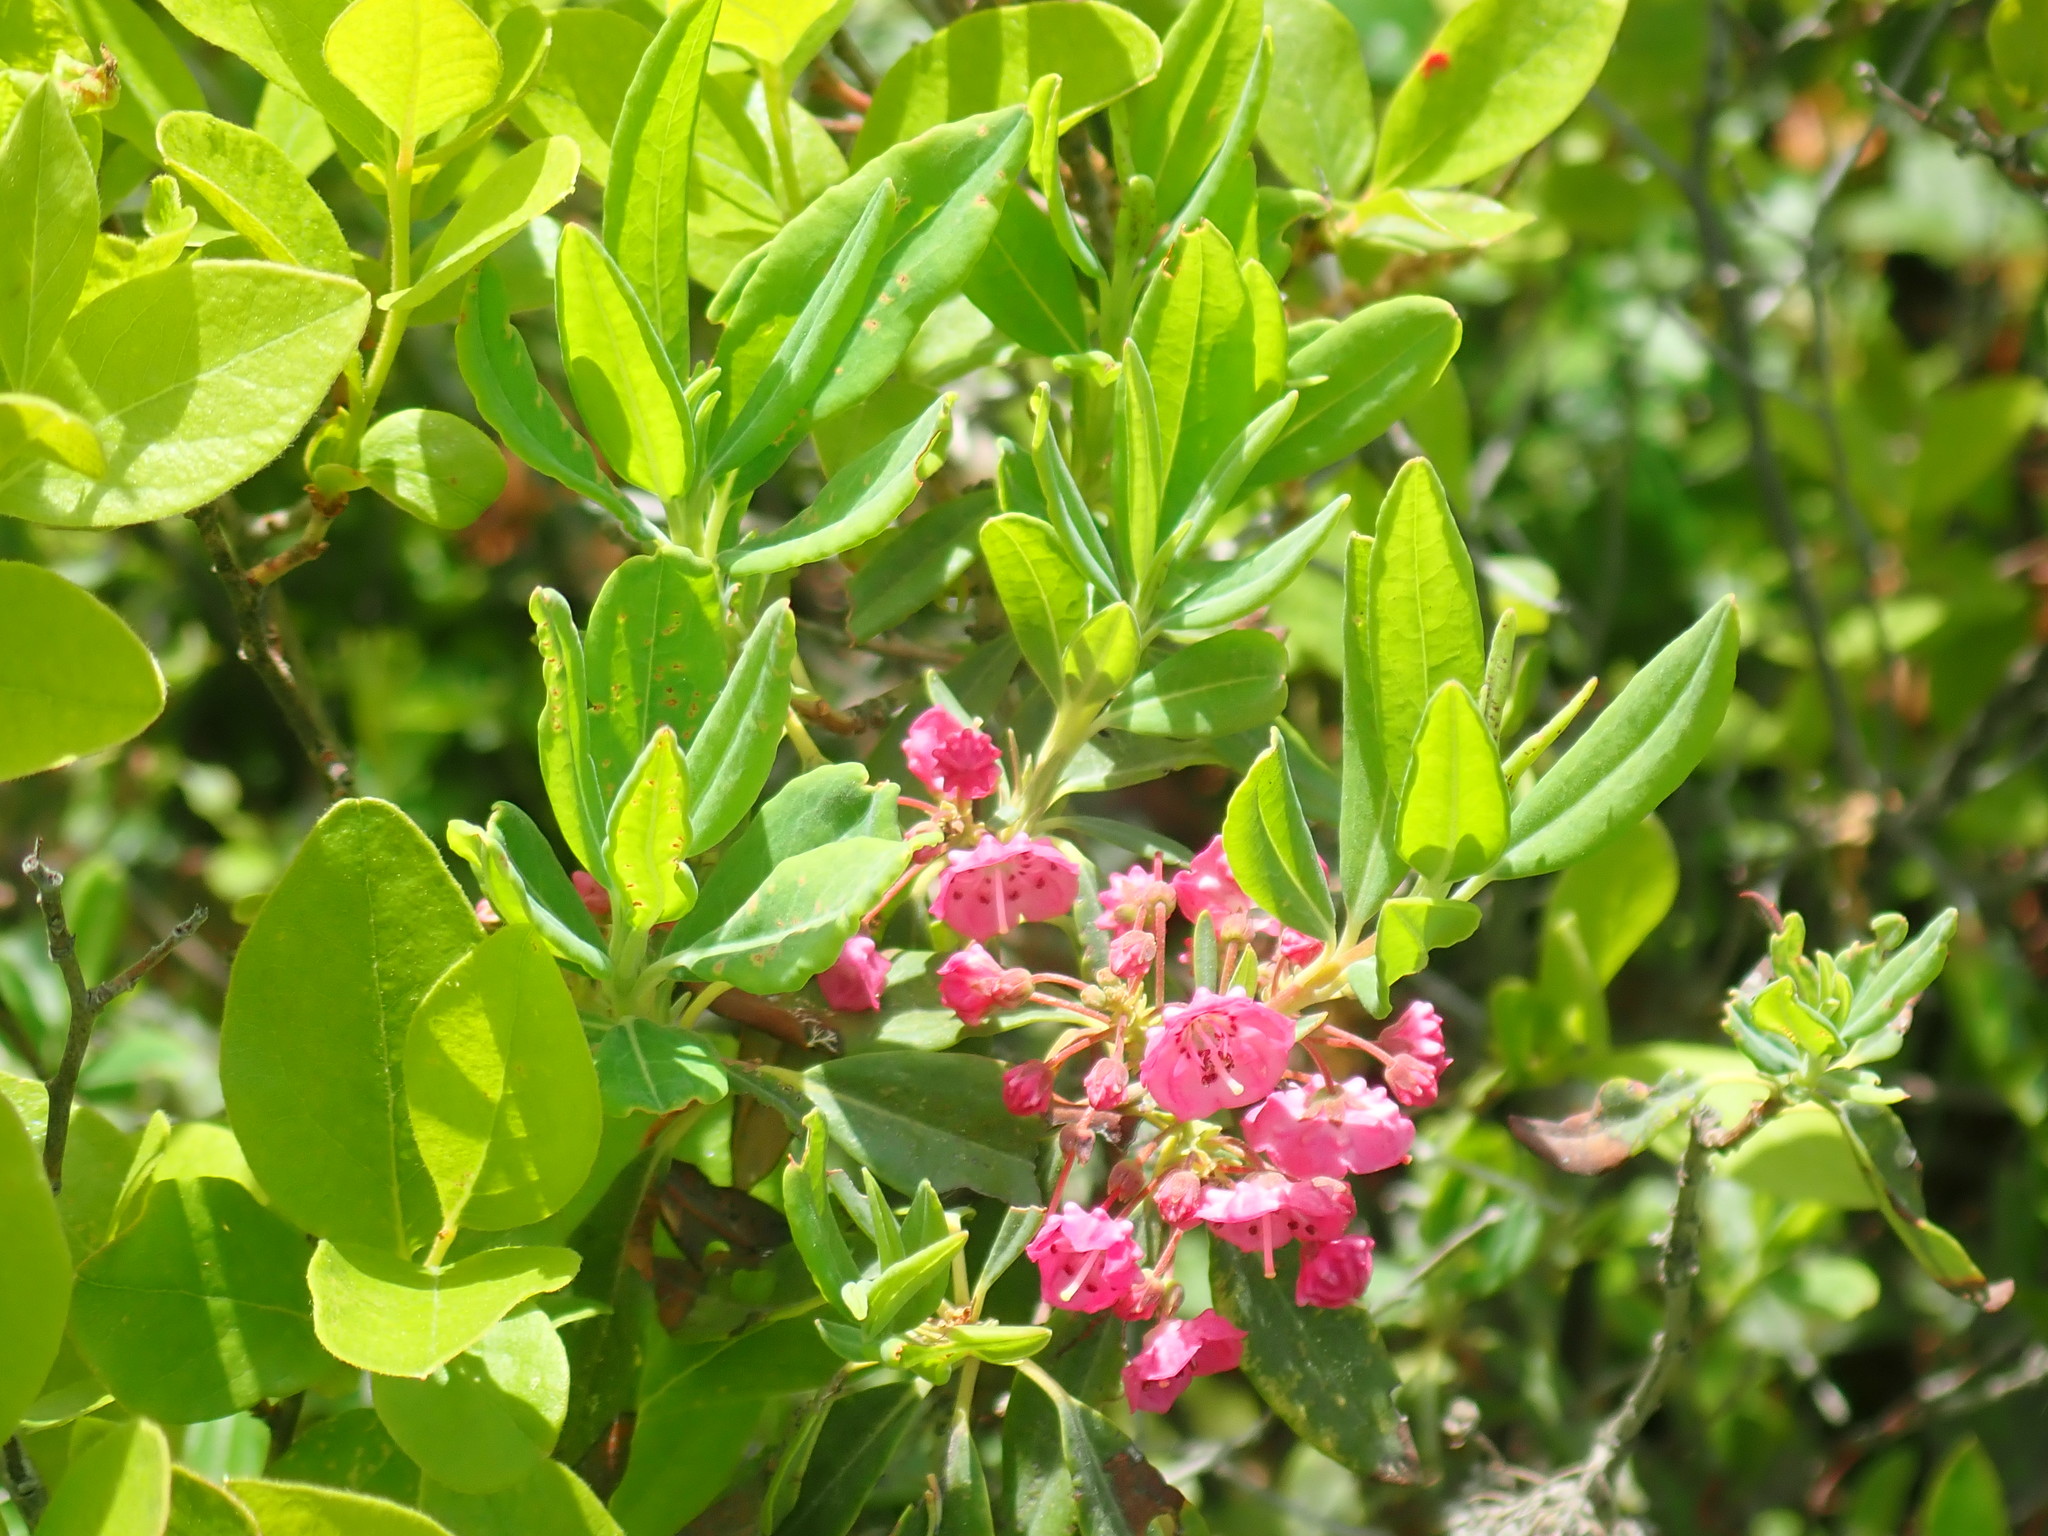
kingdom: Plantae
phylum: Tracheophyta
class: Magnoliopsida
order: Ericales
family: Ericaceae
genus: Kalmia
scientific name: Kalmia angustifolia
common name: Sheep-laurel
